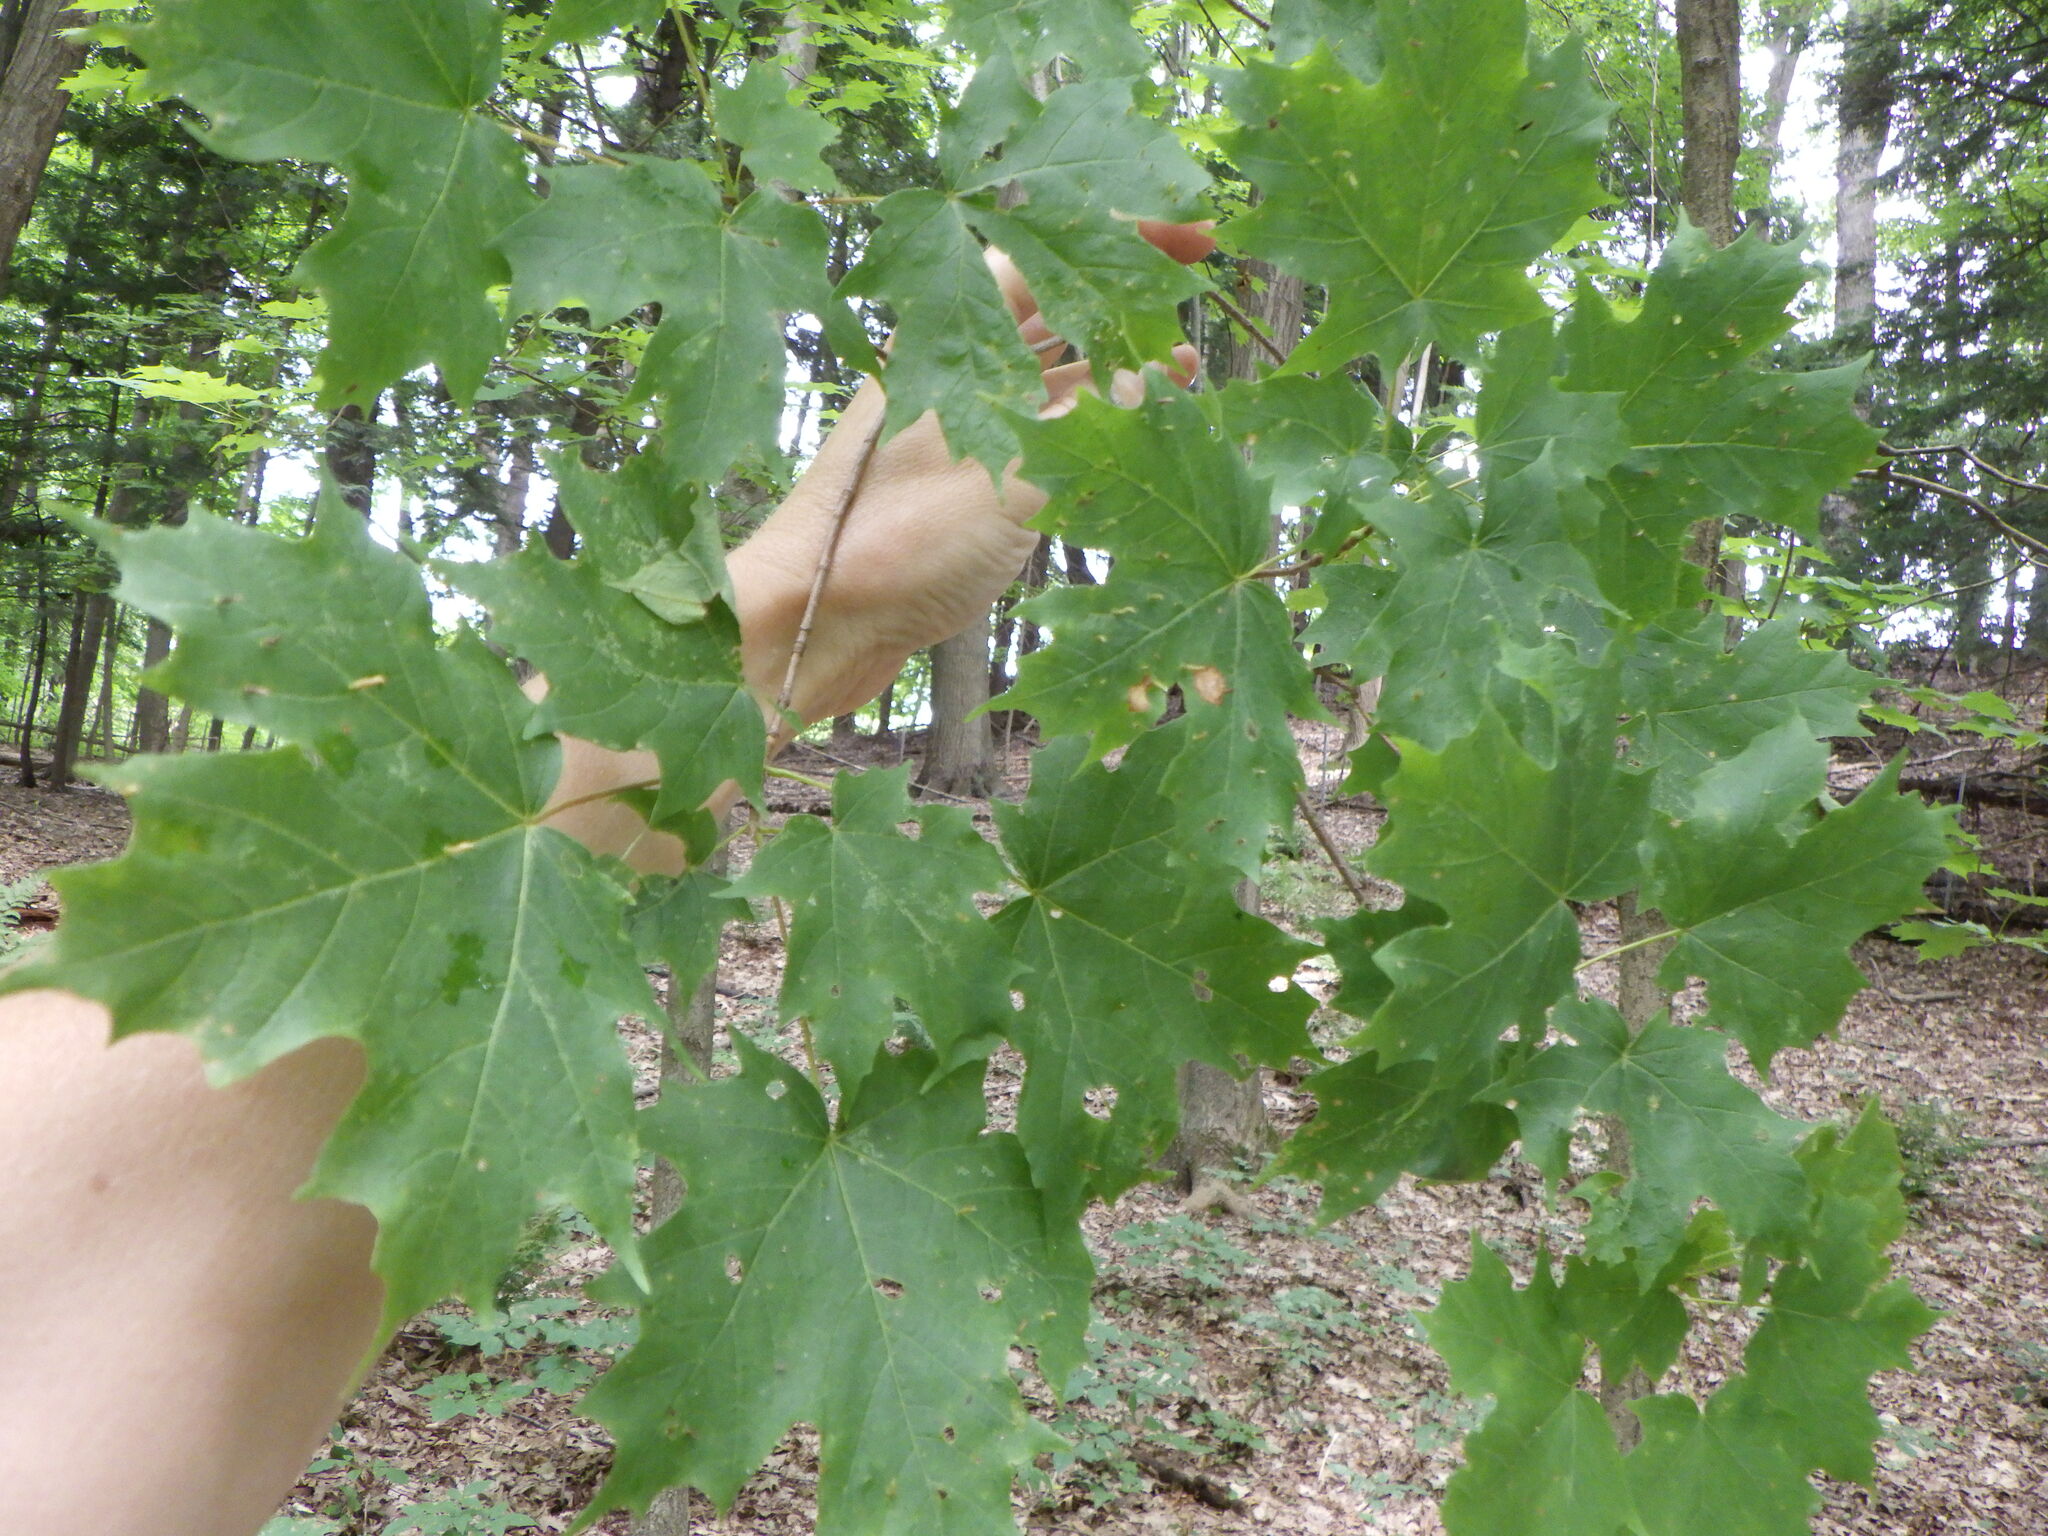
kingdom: Plantae
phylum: Tracheophyta
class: Magnoliopsida
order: Sapindales
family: Sapindaceae
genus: Acer
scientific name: Acer saccharum
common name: Sugar maple
